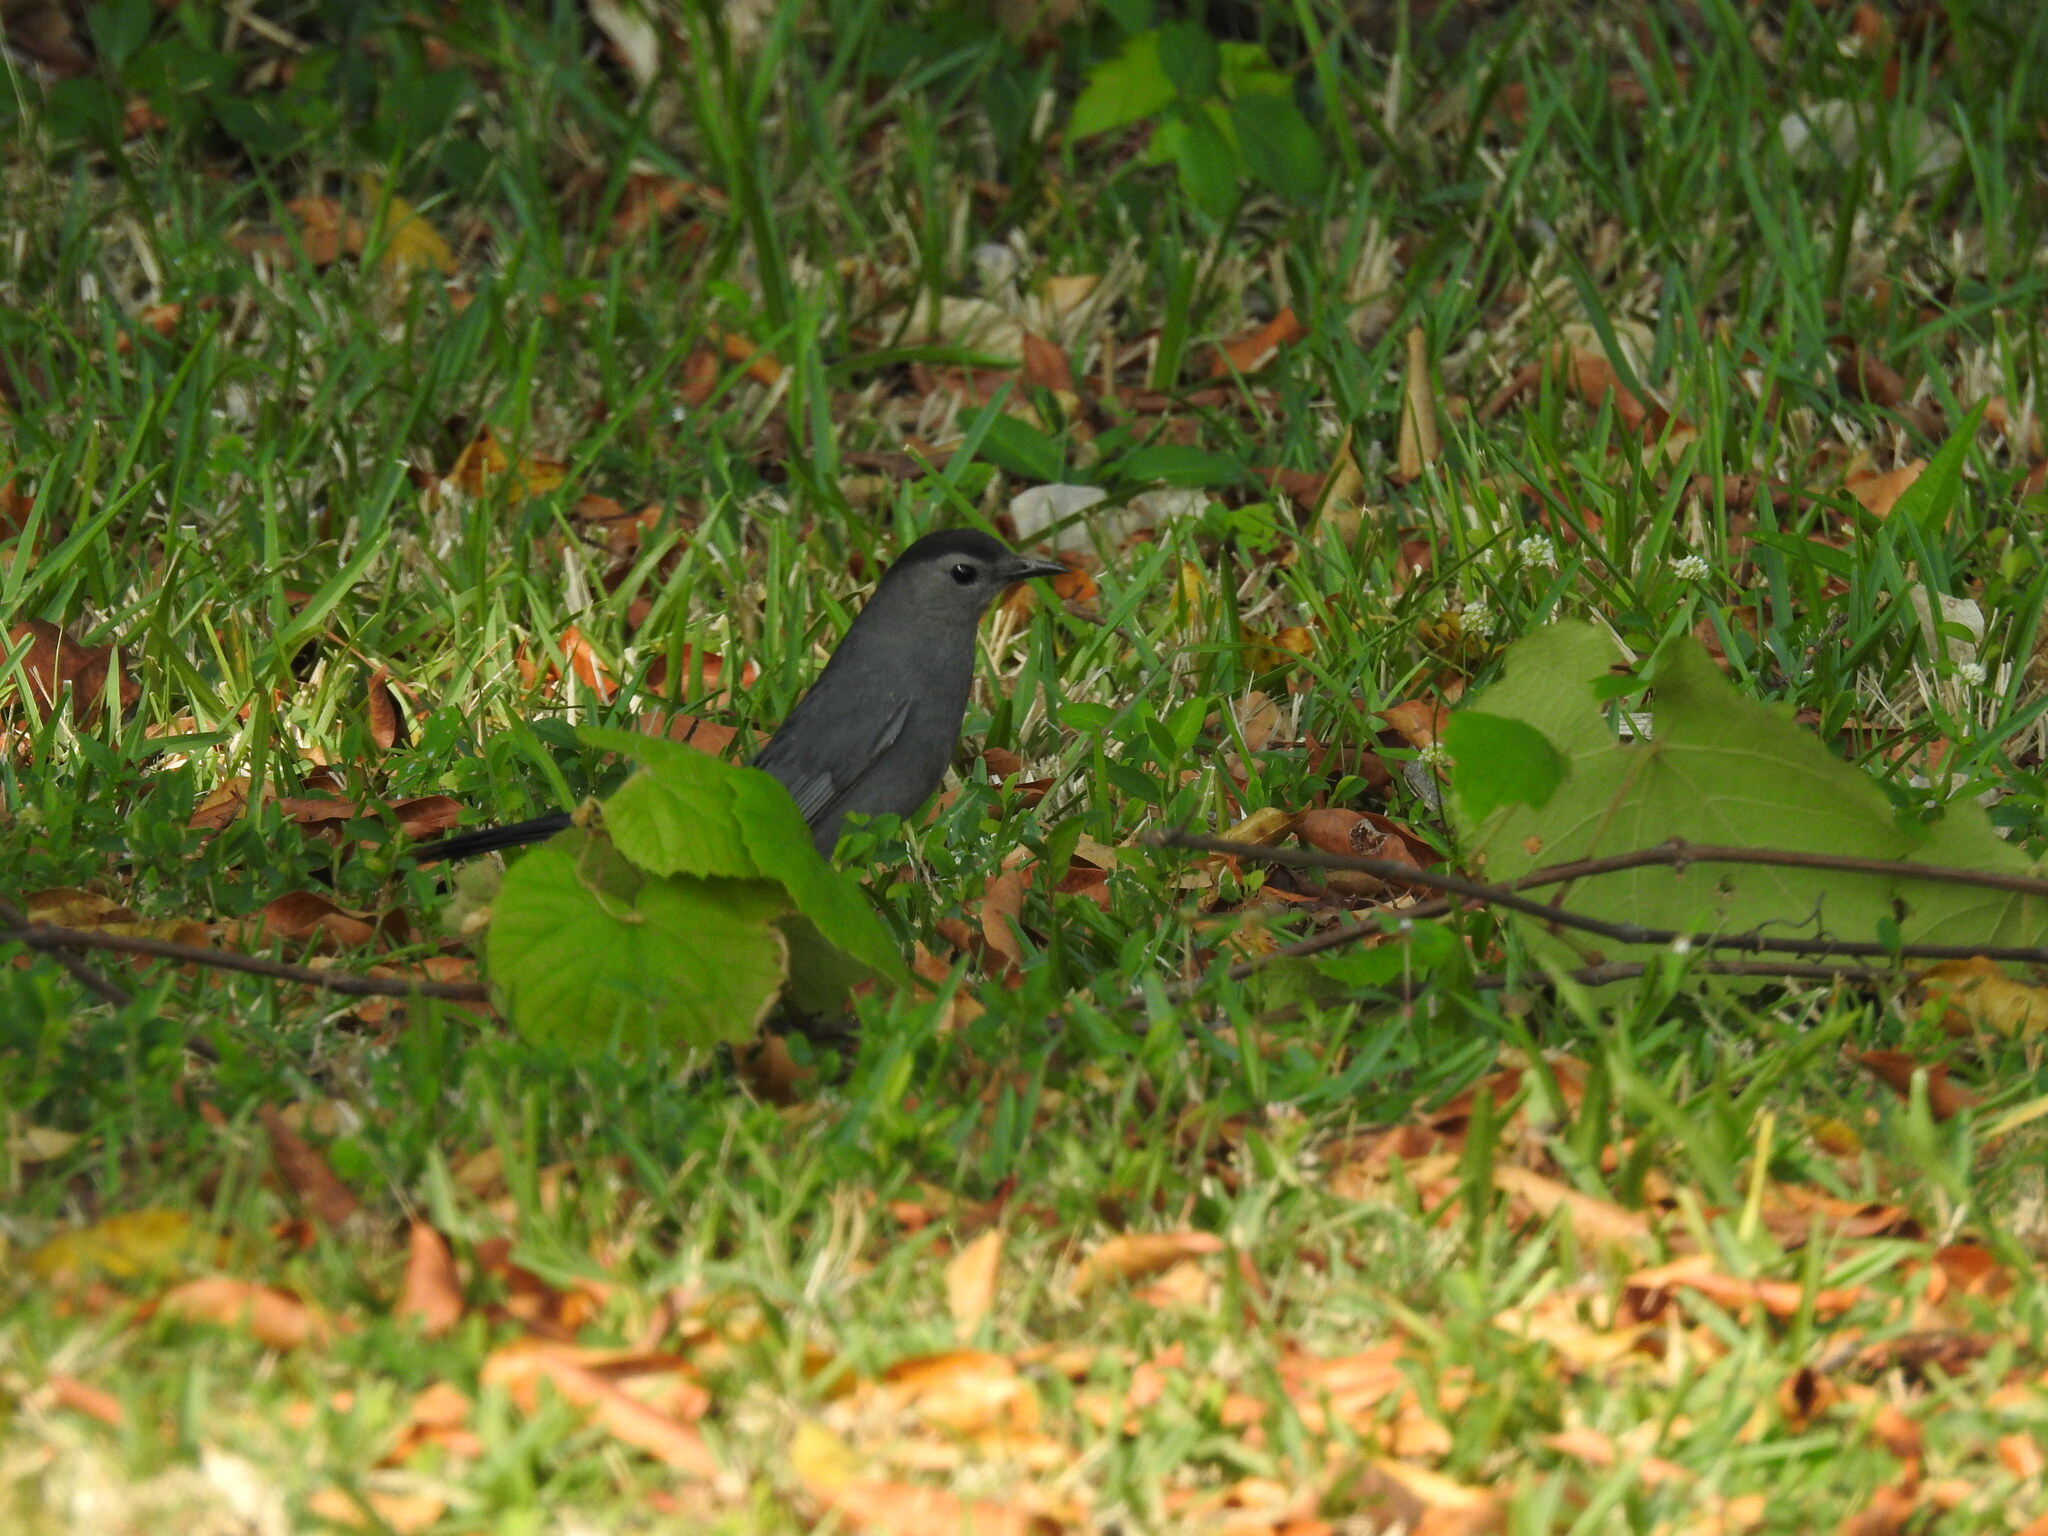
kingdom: Animalia
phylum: Chordata
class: Aves
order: Passeriformes
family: Mimidae
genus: Dumetella
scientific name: Dumetella carolinensis
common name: Gray catbird
